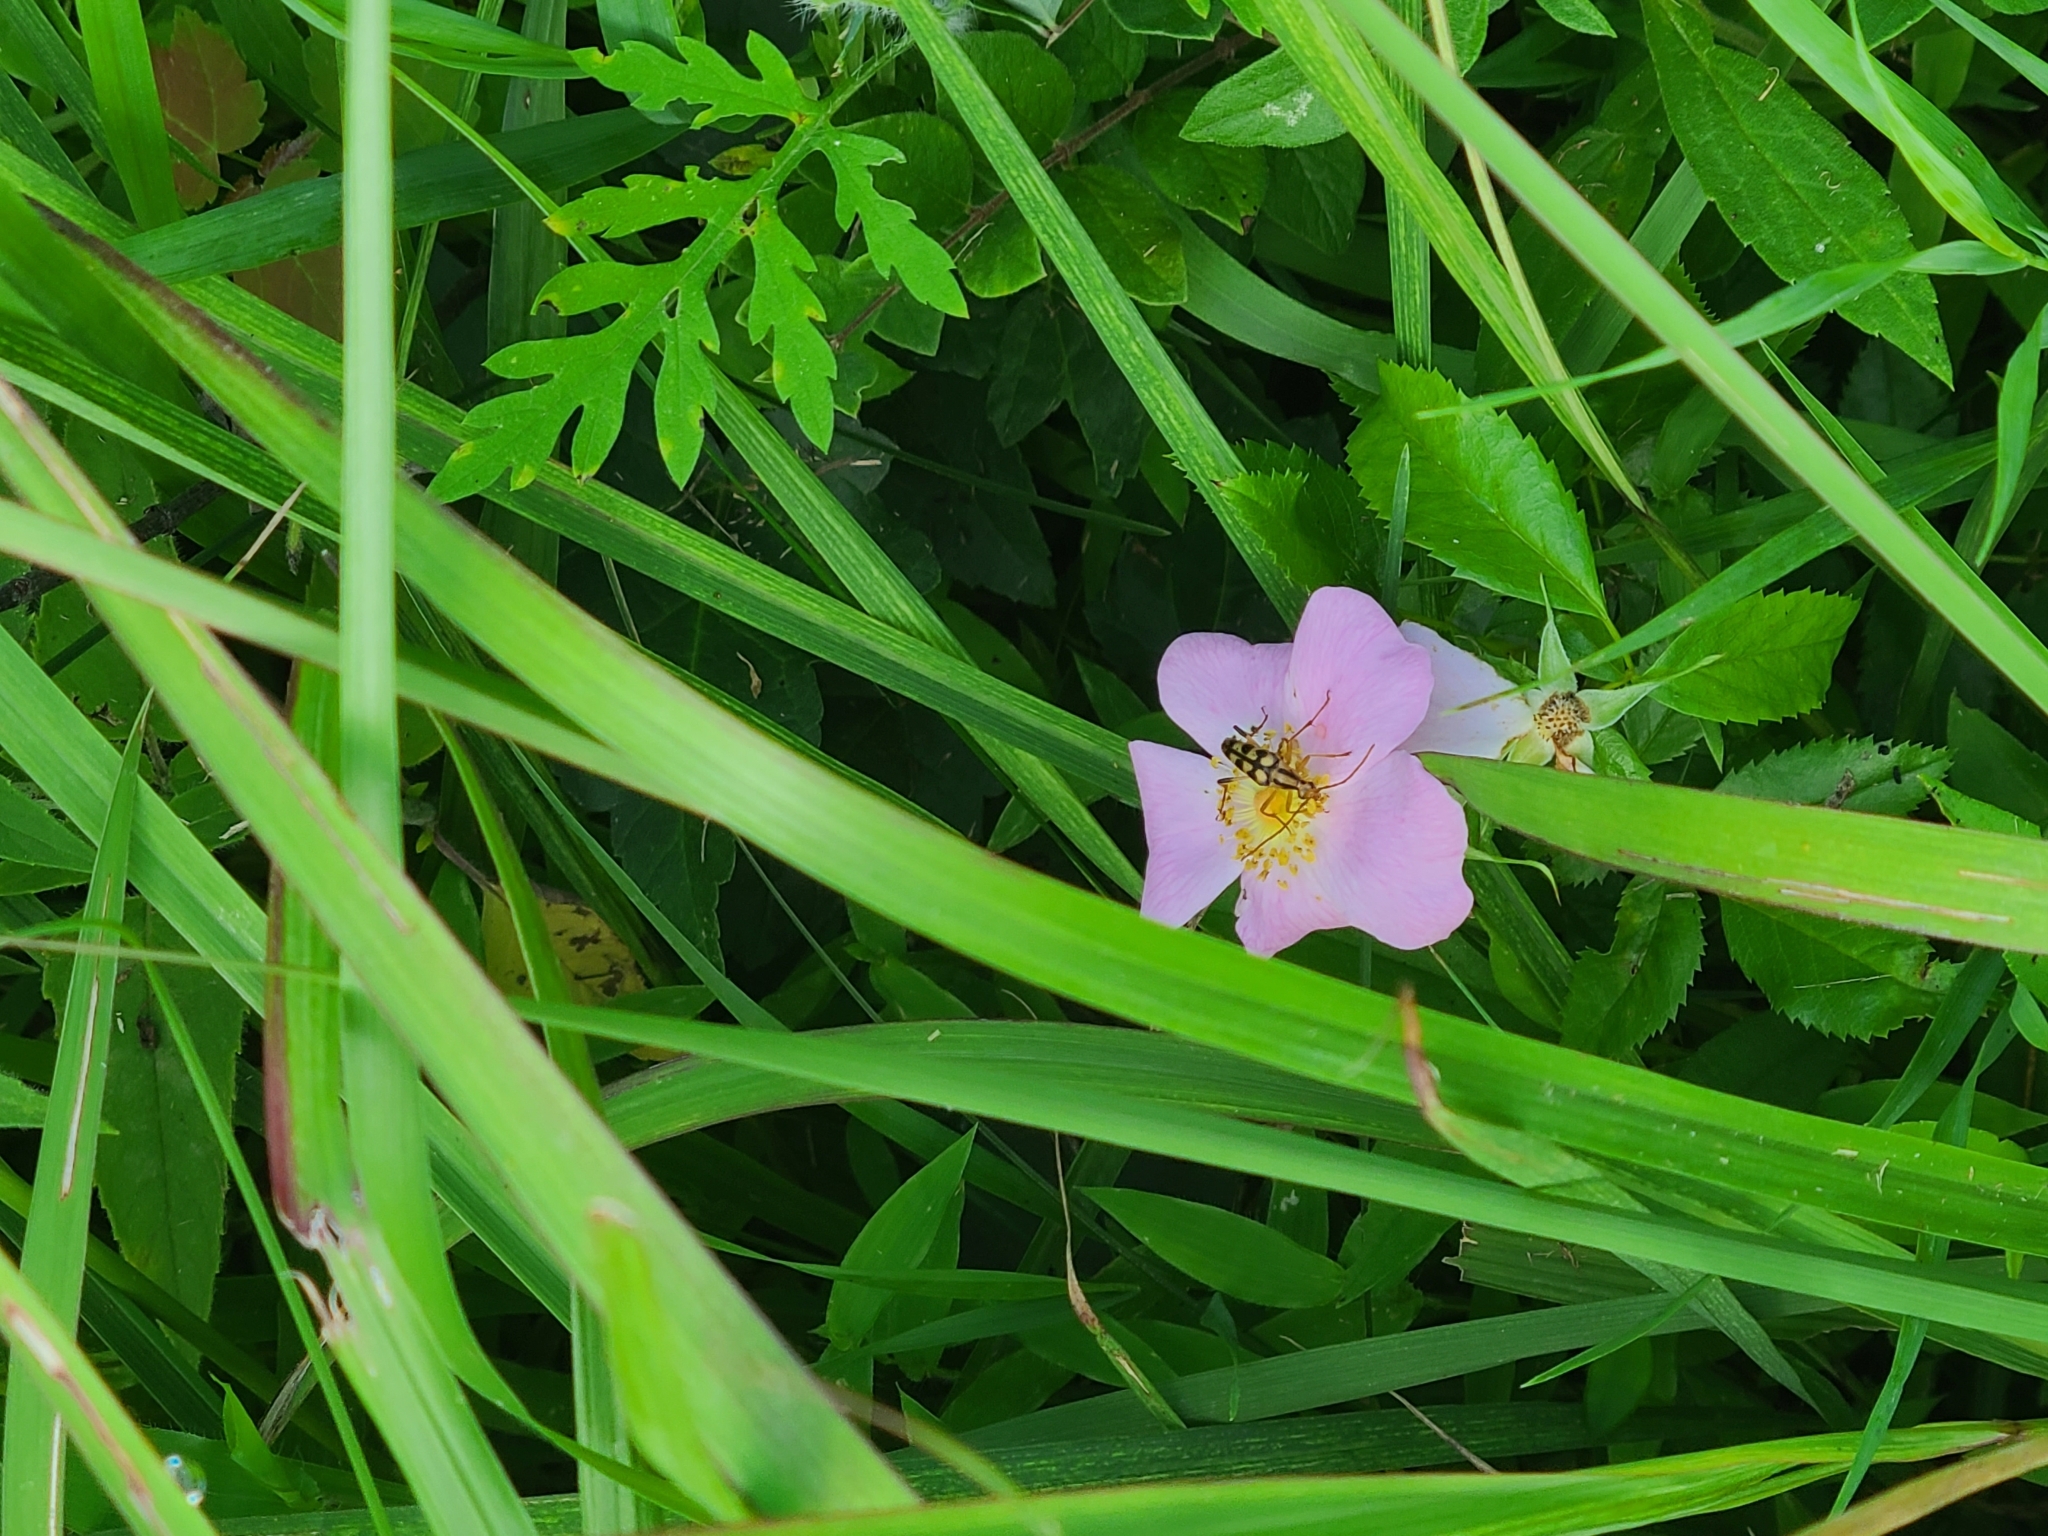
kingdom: Animalia
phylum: Arthropoda
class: Insecta
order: Coleoptera
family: Cerambycidae
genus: Strangalia
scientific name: Strangalia luteicornis
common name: Yellow-horned flower longhorn beetle
